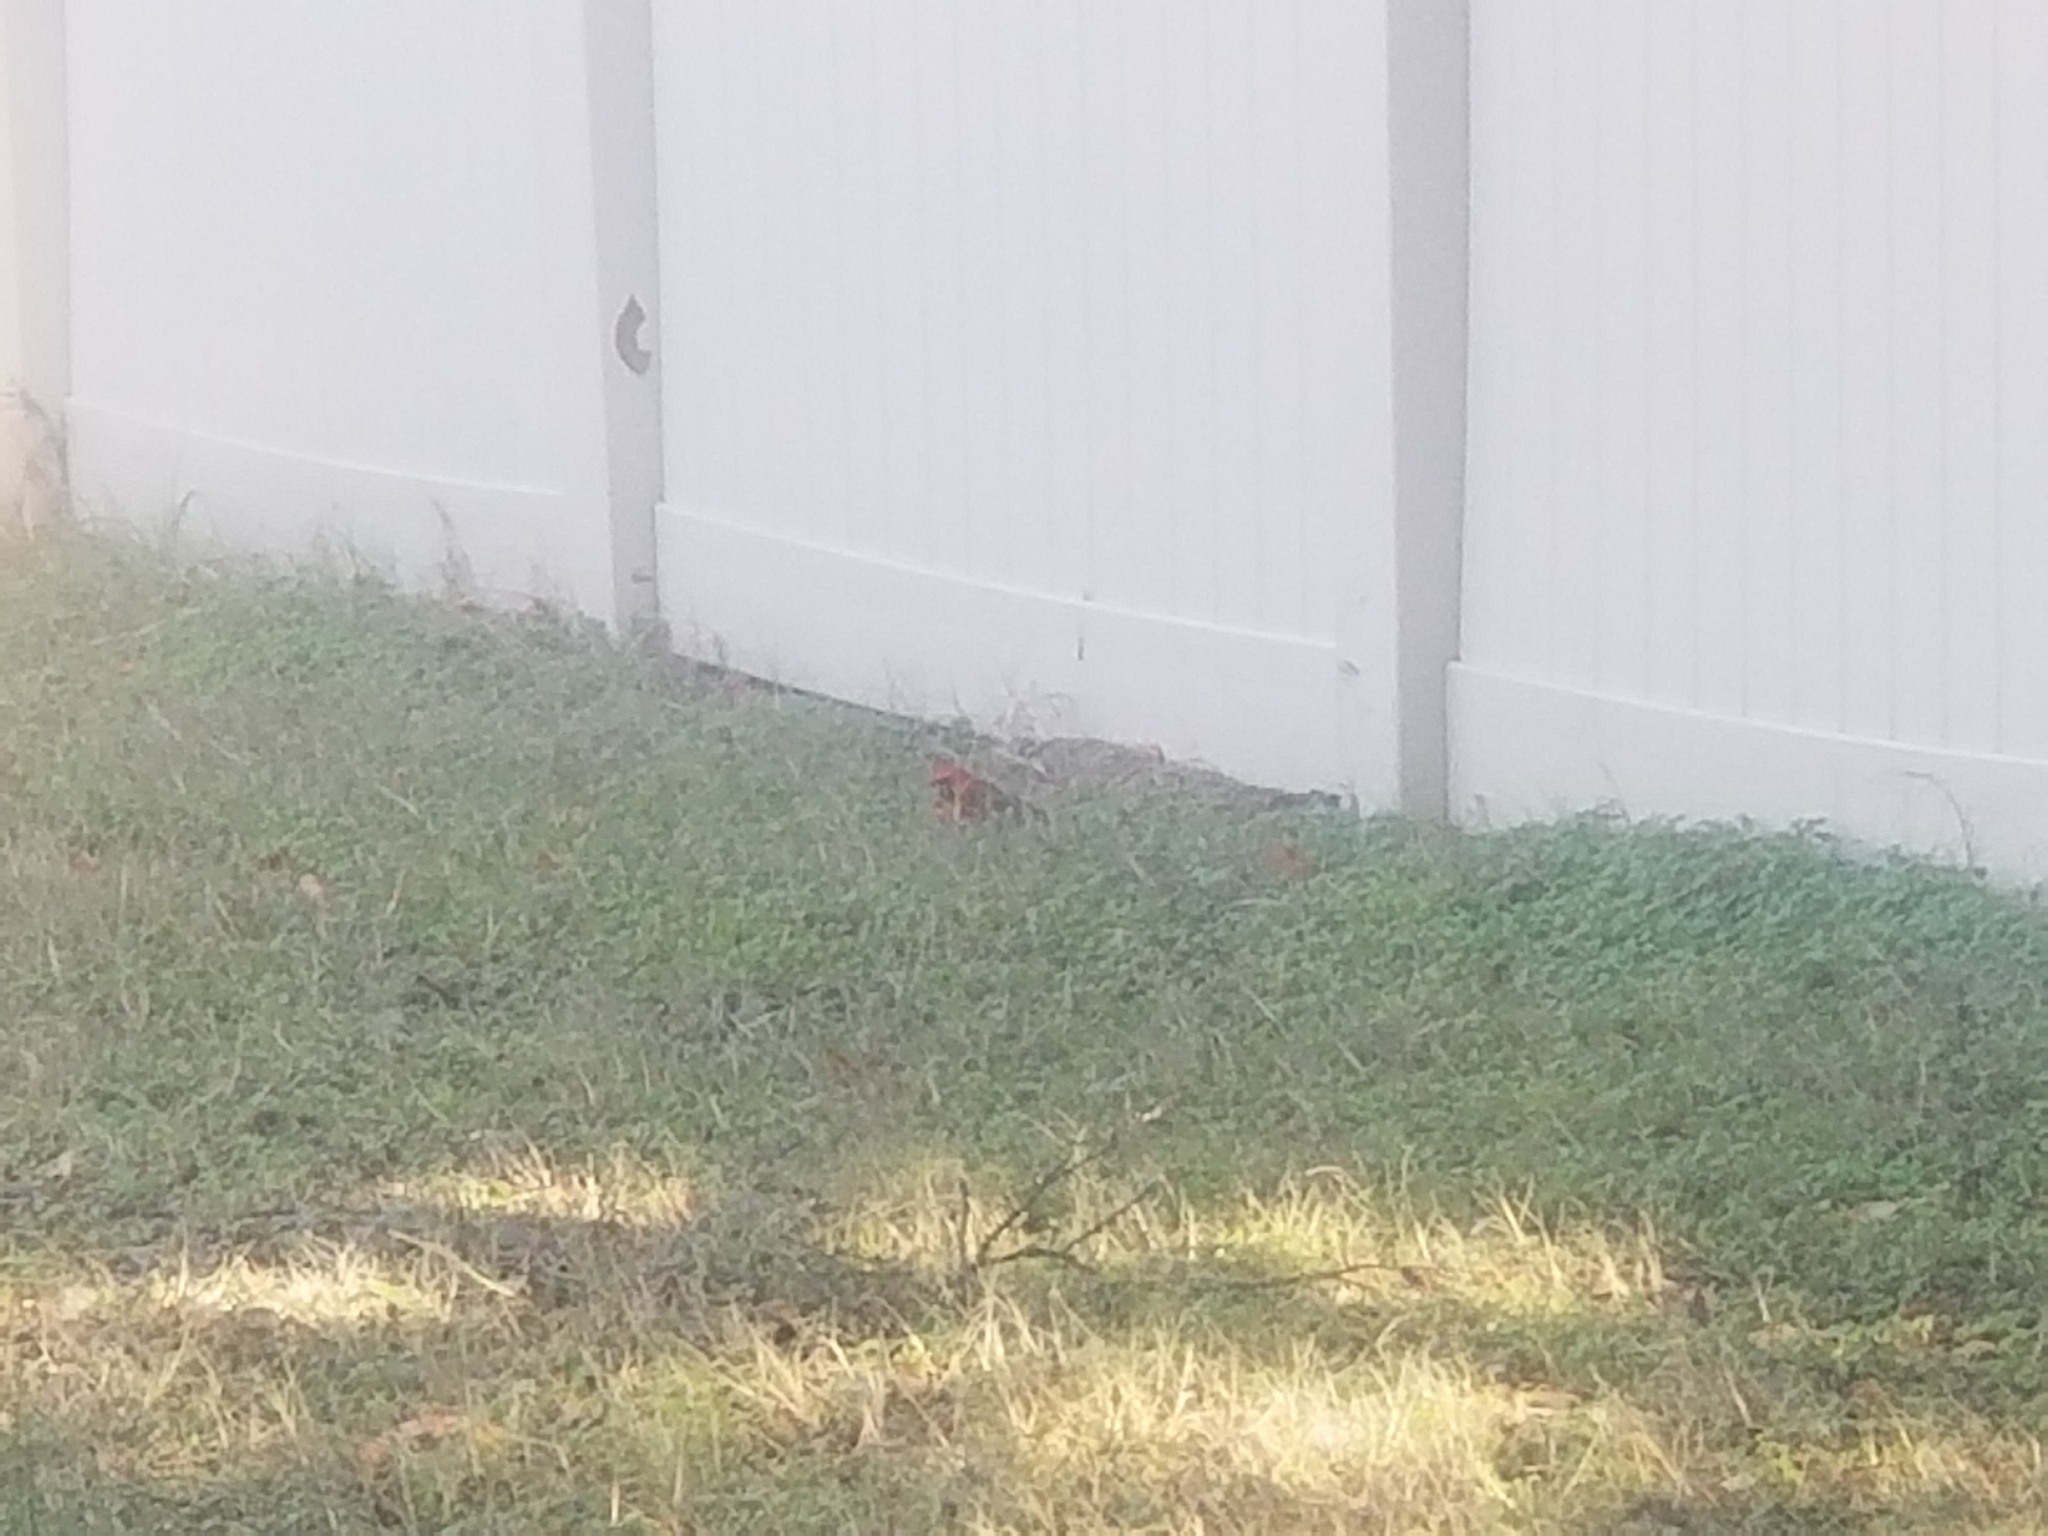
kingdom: Animalia
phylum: Chordata
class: Aves
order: Passeriformes
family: Cardinalidae
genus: Cardinalis
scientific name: Cardinalis cardinalis
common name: Northern cardinal
